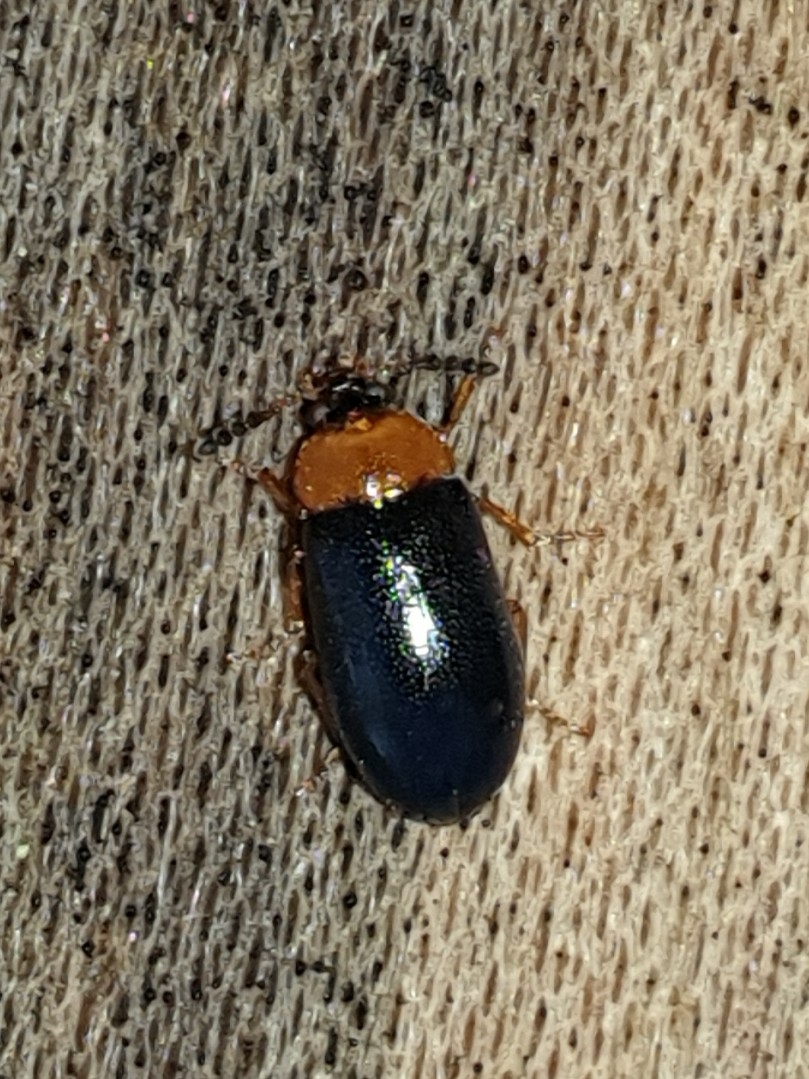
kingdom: Animalia
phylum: Arthropoda
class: Insecta
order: Coleoptera
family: Tetratomidae
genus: Tetratoma
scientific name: Tetratoma fungorum
